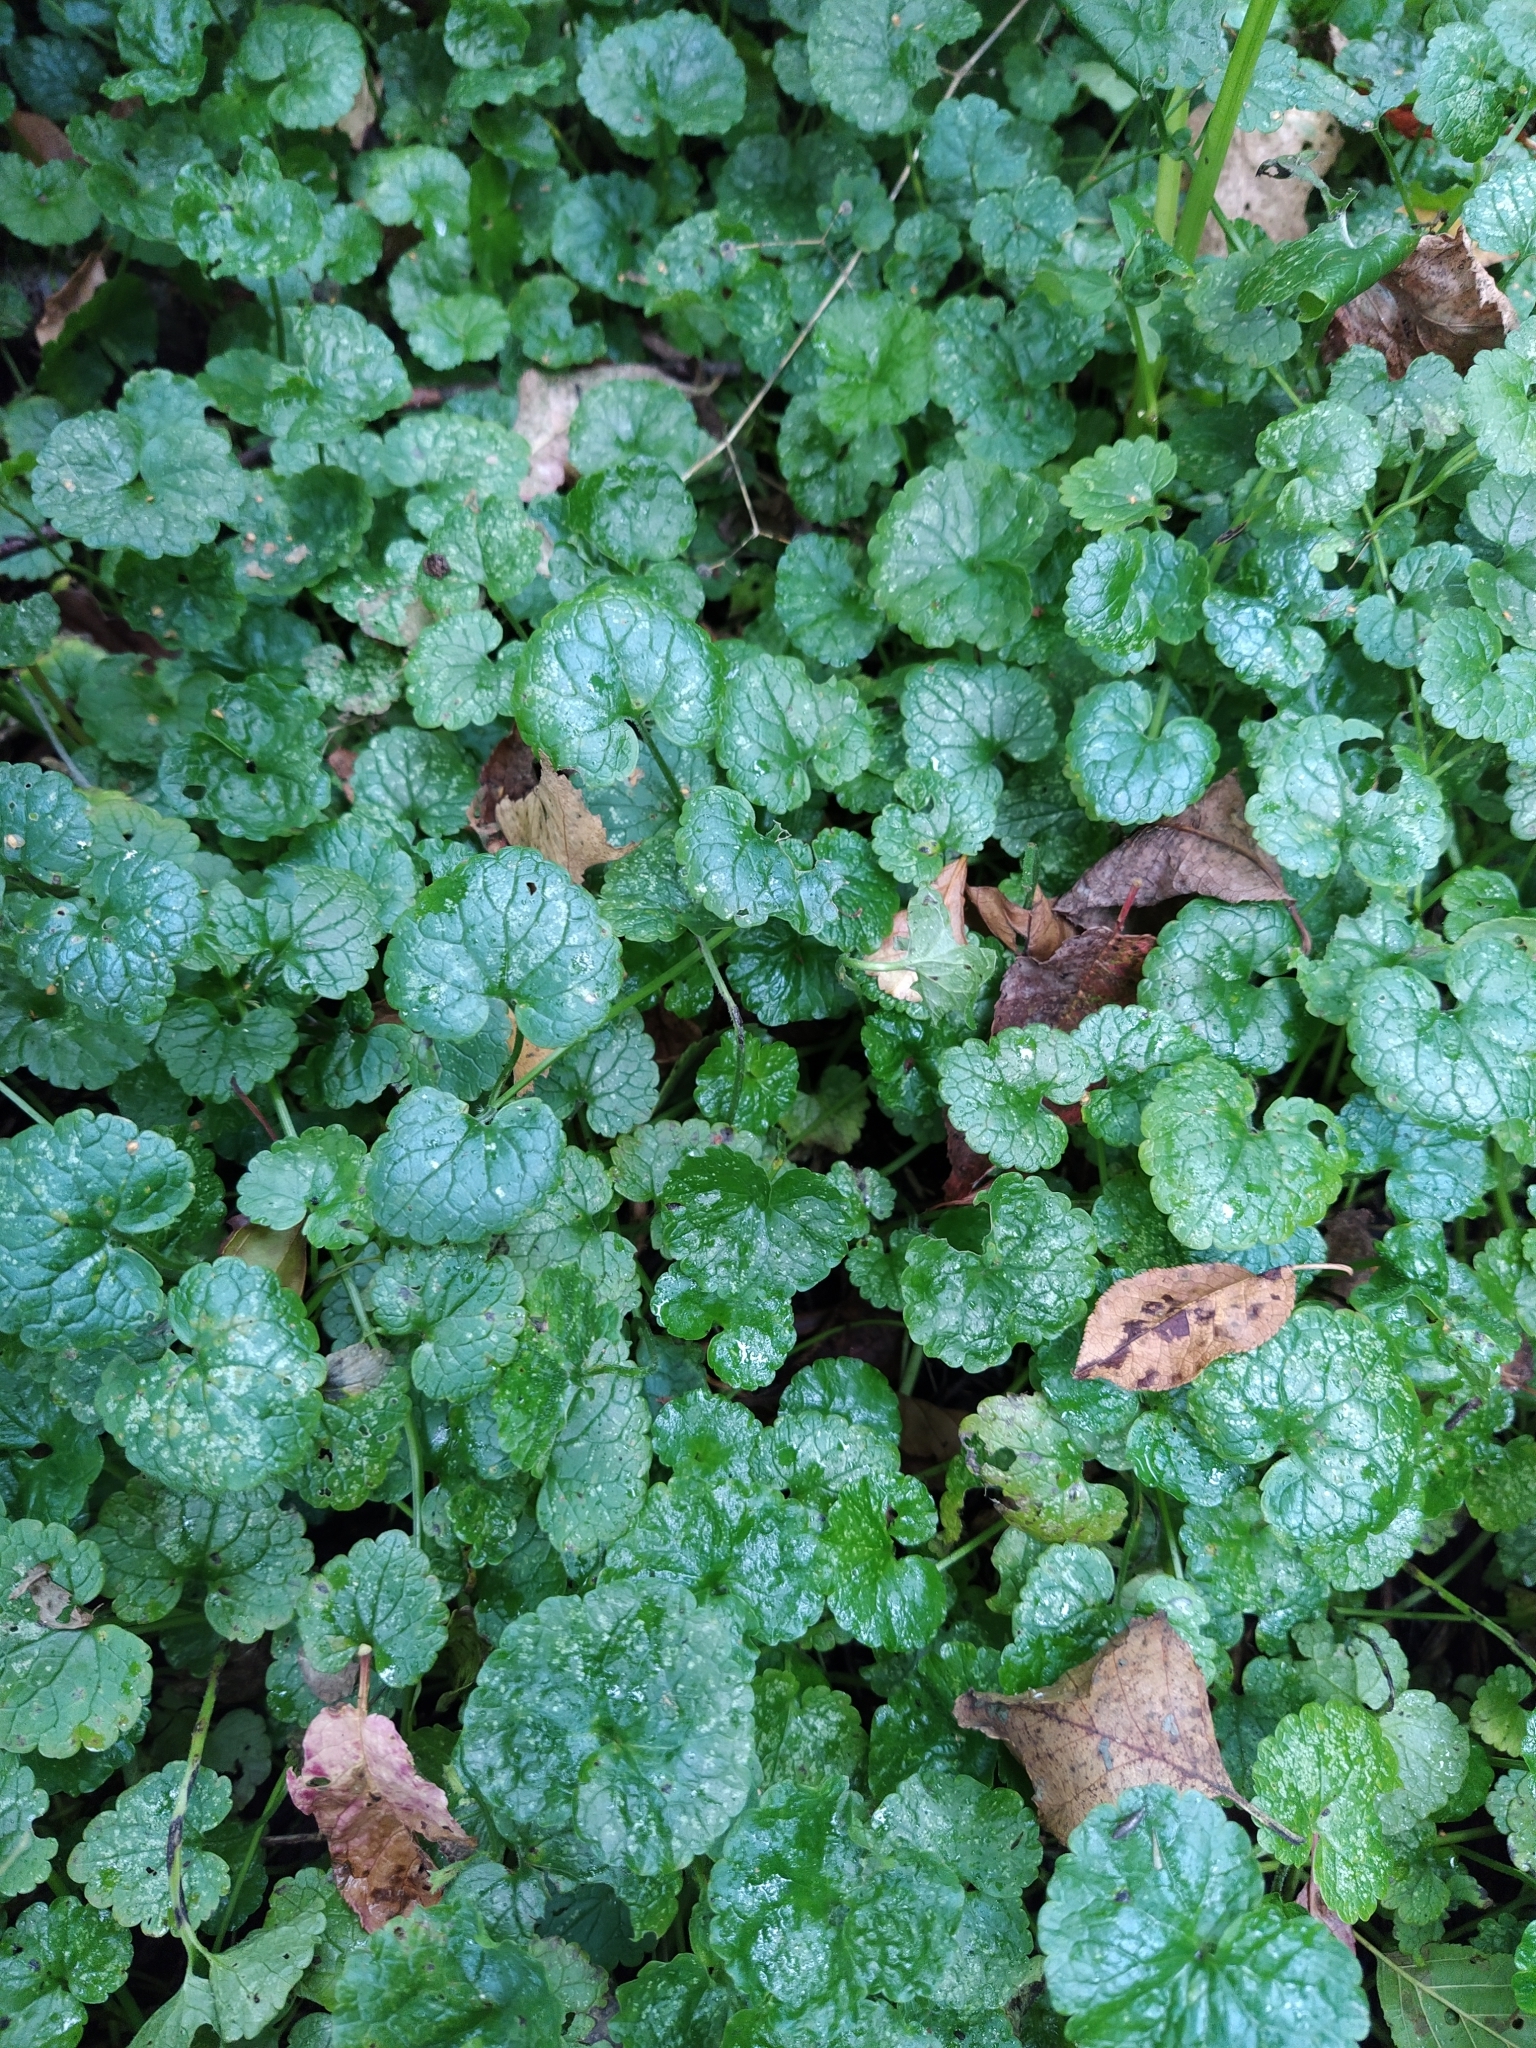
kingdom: Plantae
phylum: Tracheophyta
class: Magnoliopsida
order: Lamiales
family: Lamiaceae
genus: Glechoma
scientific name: Glechoma hederacea
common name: Ground ivy
